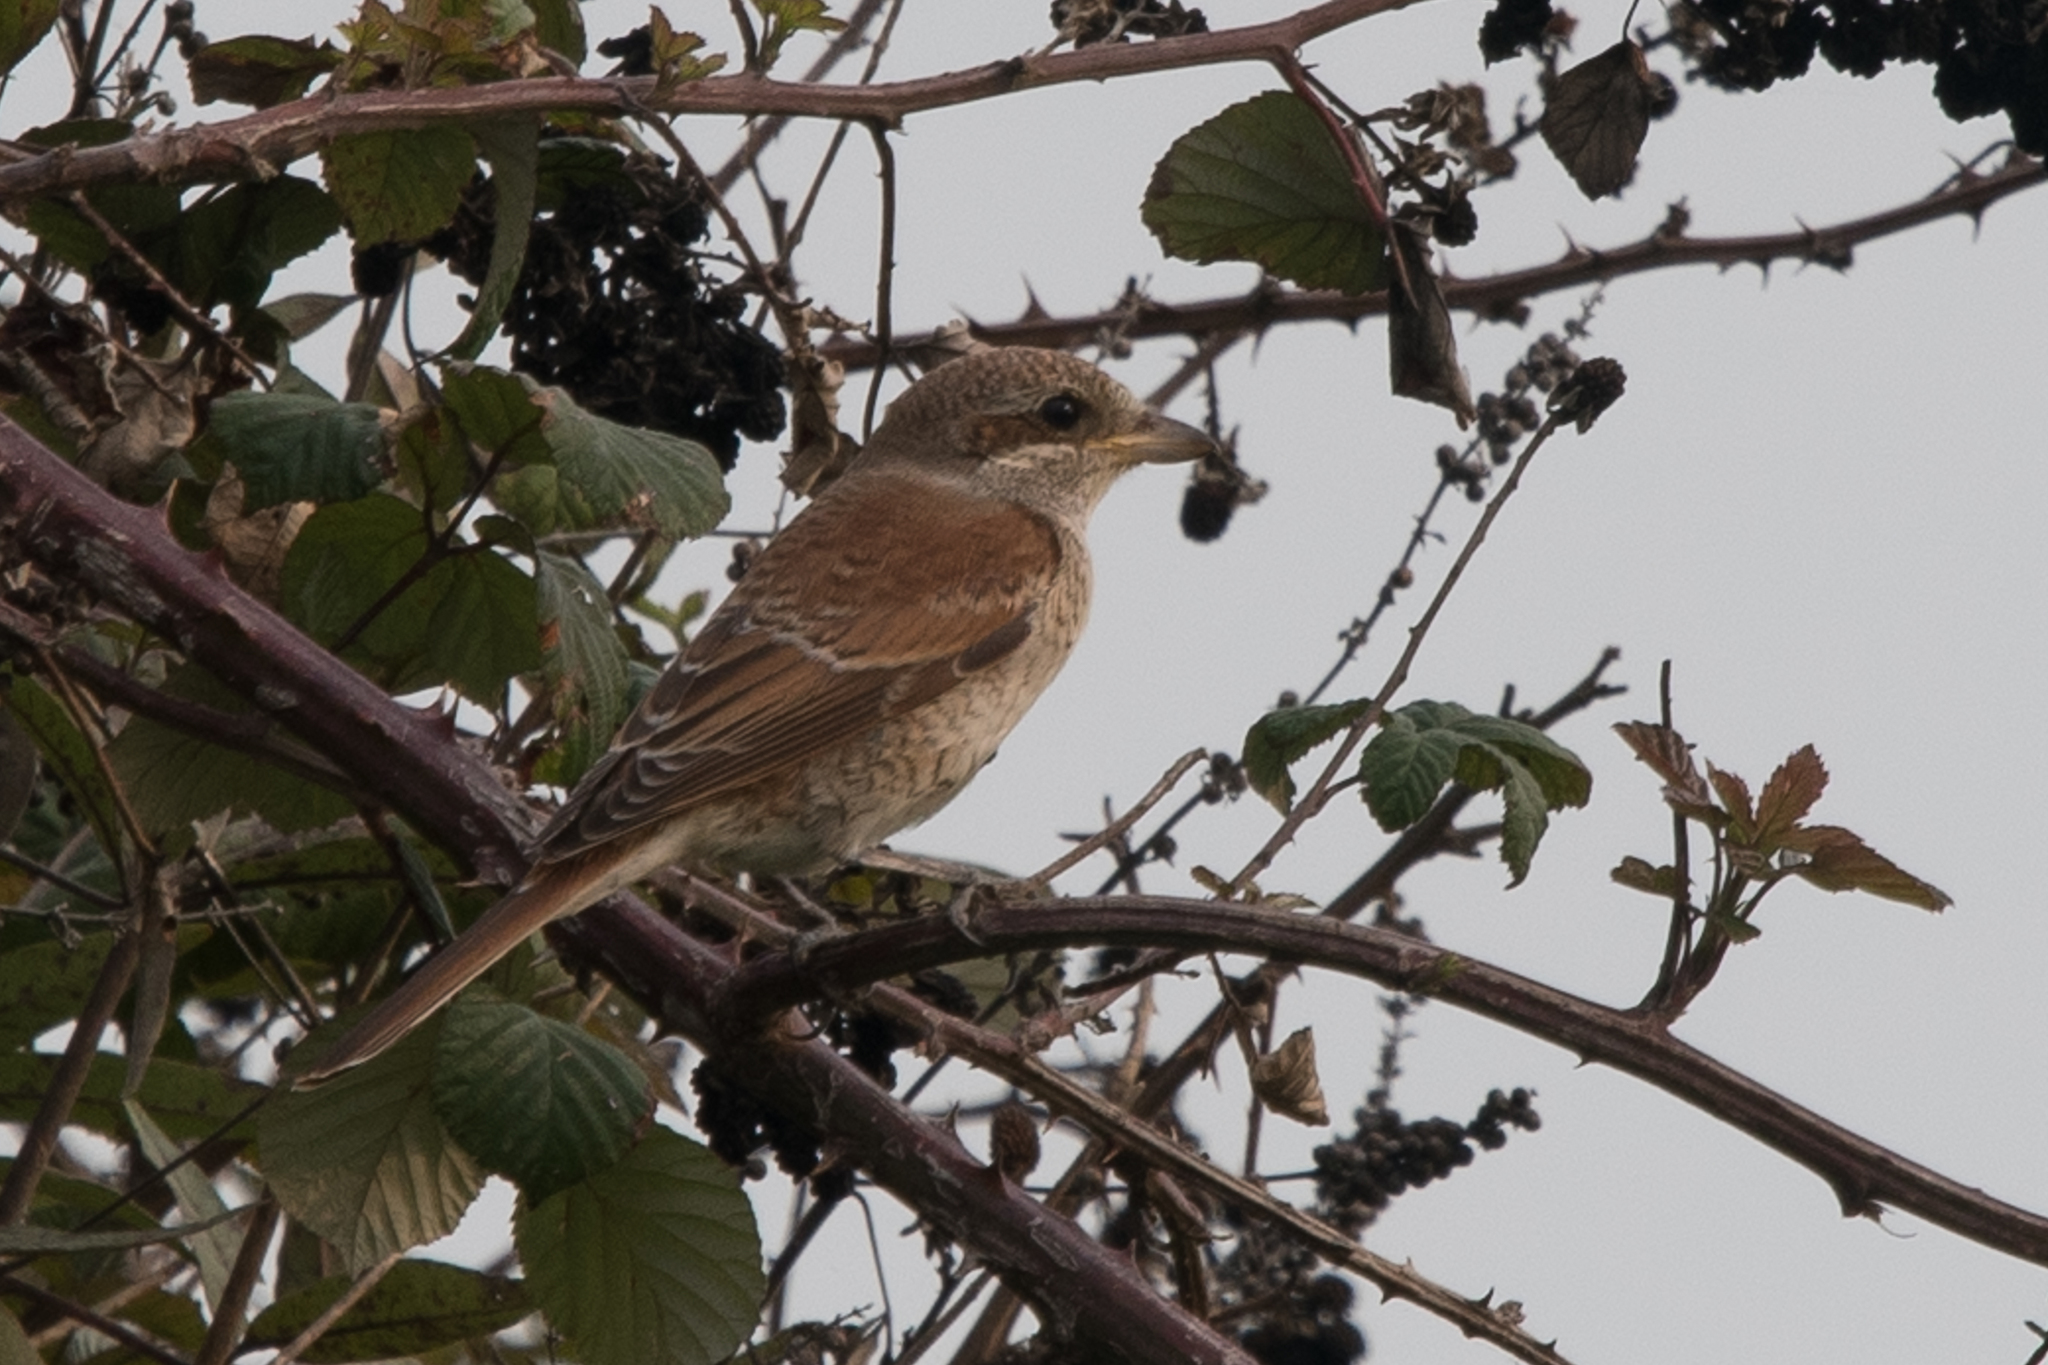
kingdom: Animalia
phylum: Chordata
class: Aves
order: Passeriformes
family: Laniidae
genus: Lanius
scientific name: Lanius collurio
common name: Red-backed shrike
